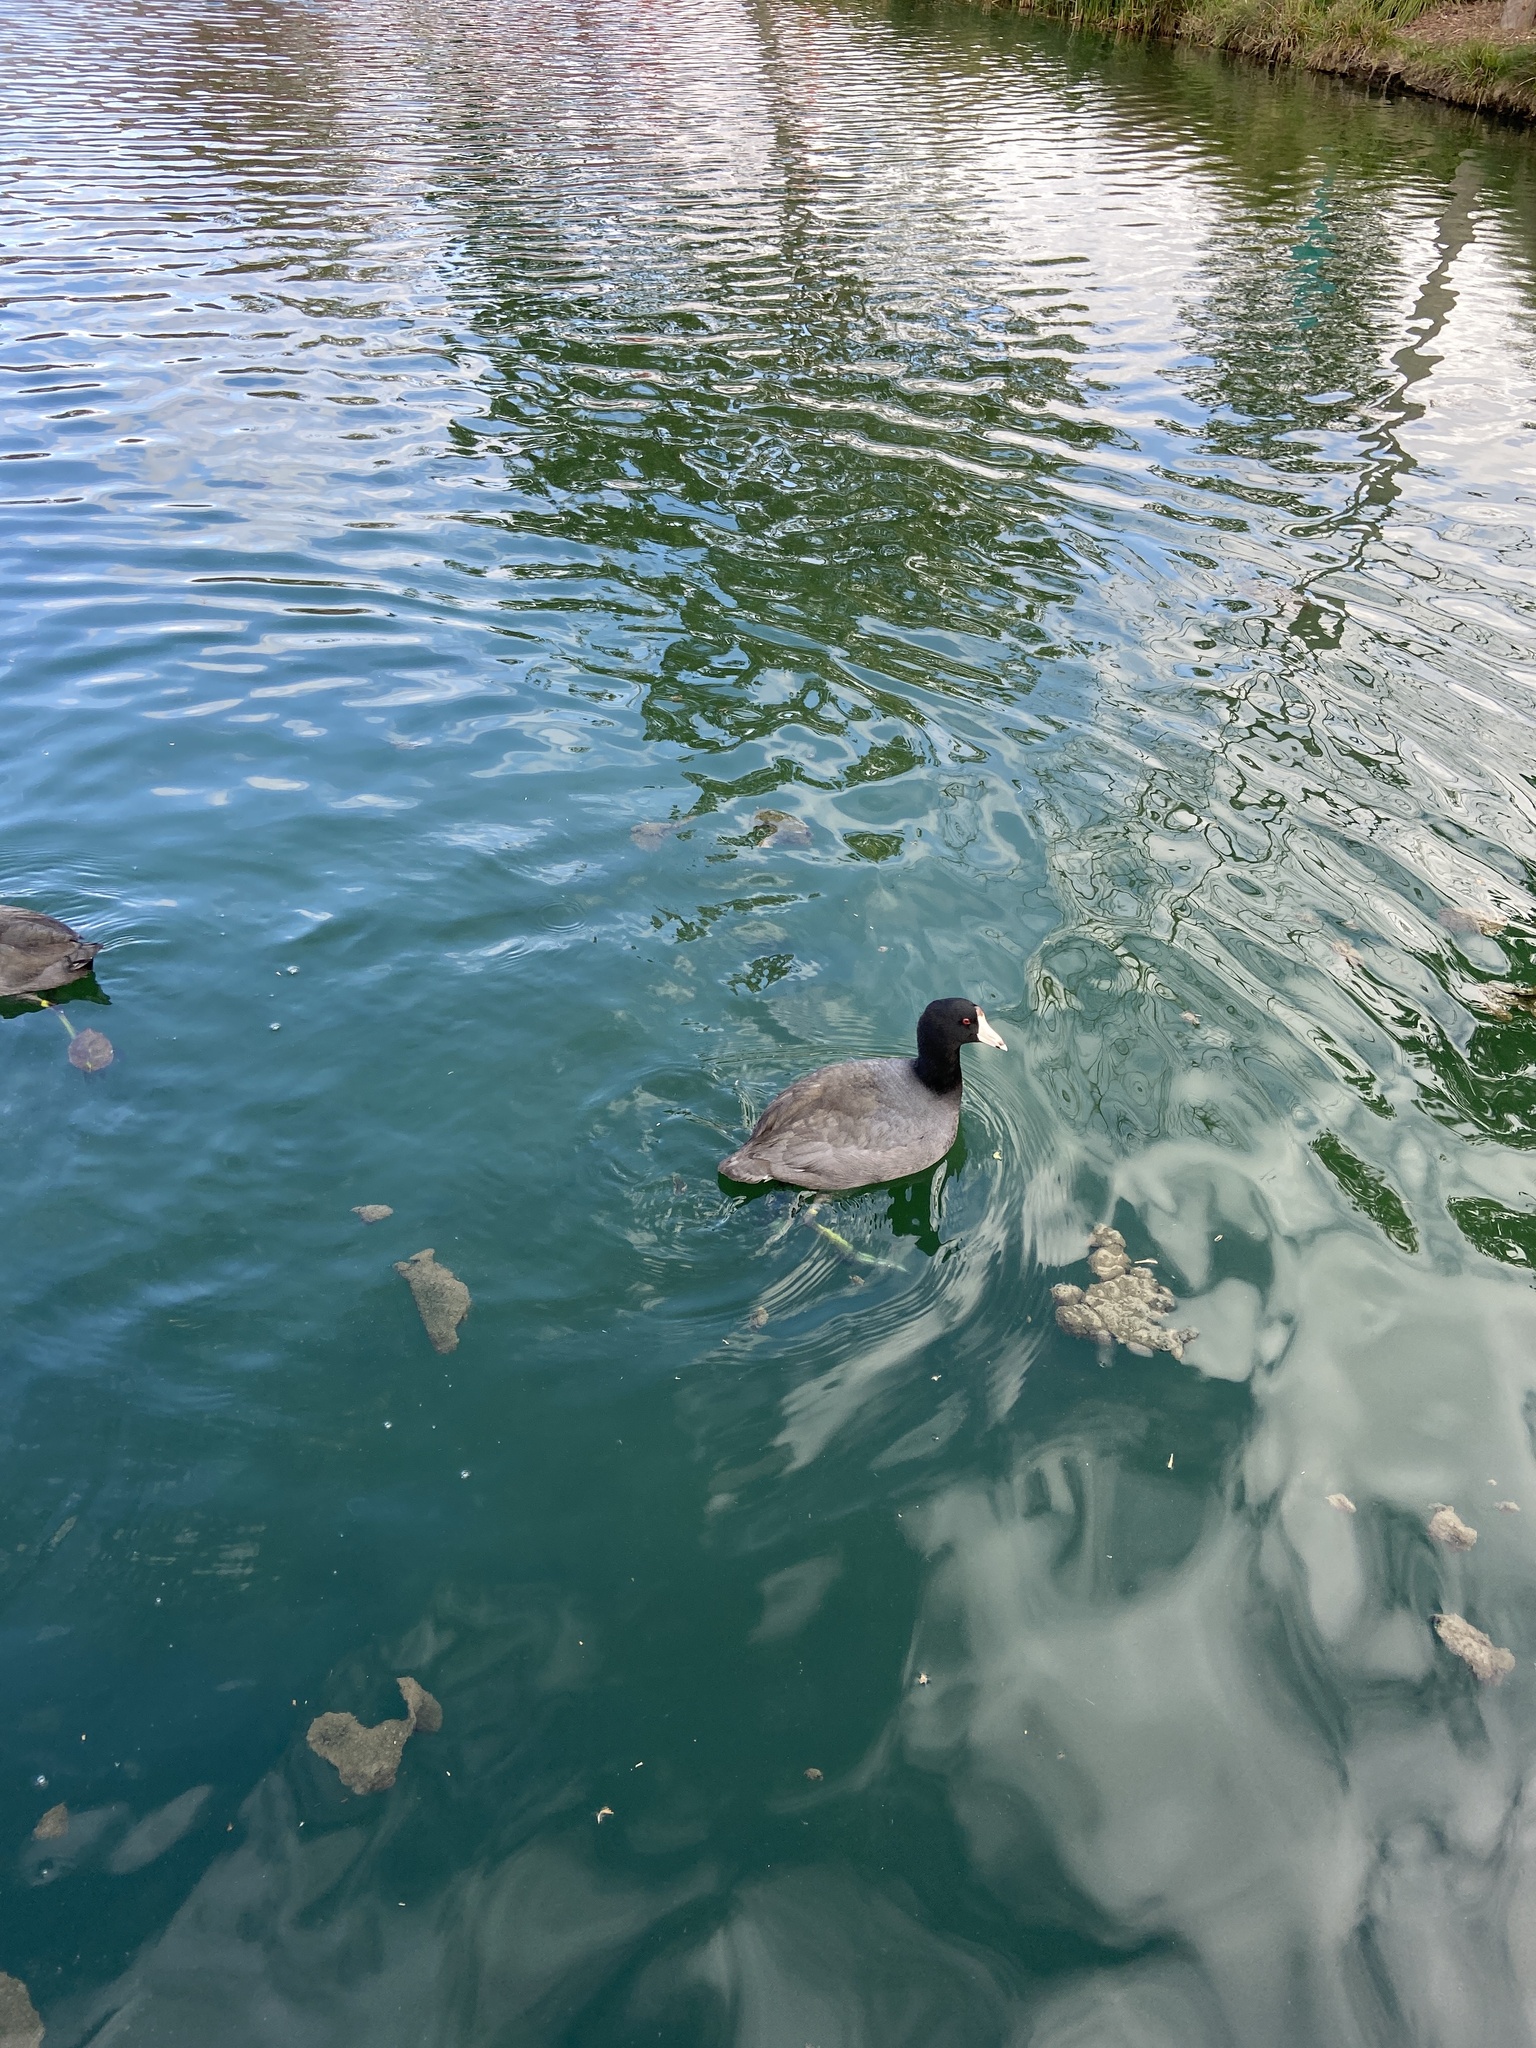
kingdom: Animalia
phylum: Chordata
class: Aves
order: Gruiformes
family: Rallidae
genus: Fulica
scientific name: Fulica americana
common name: American coot
